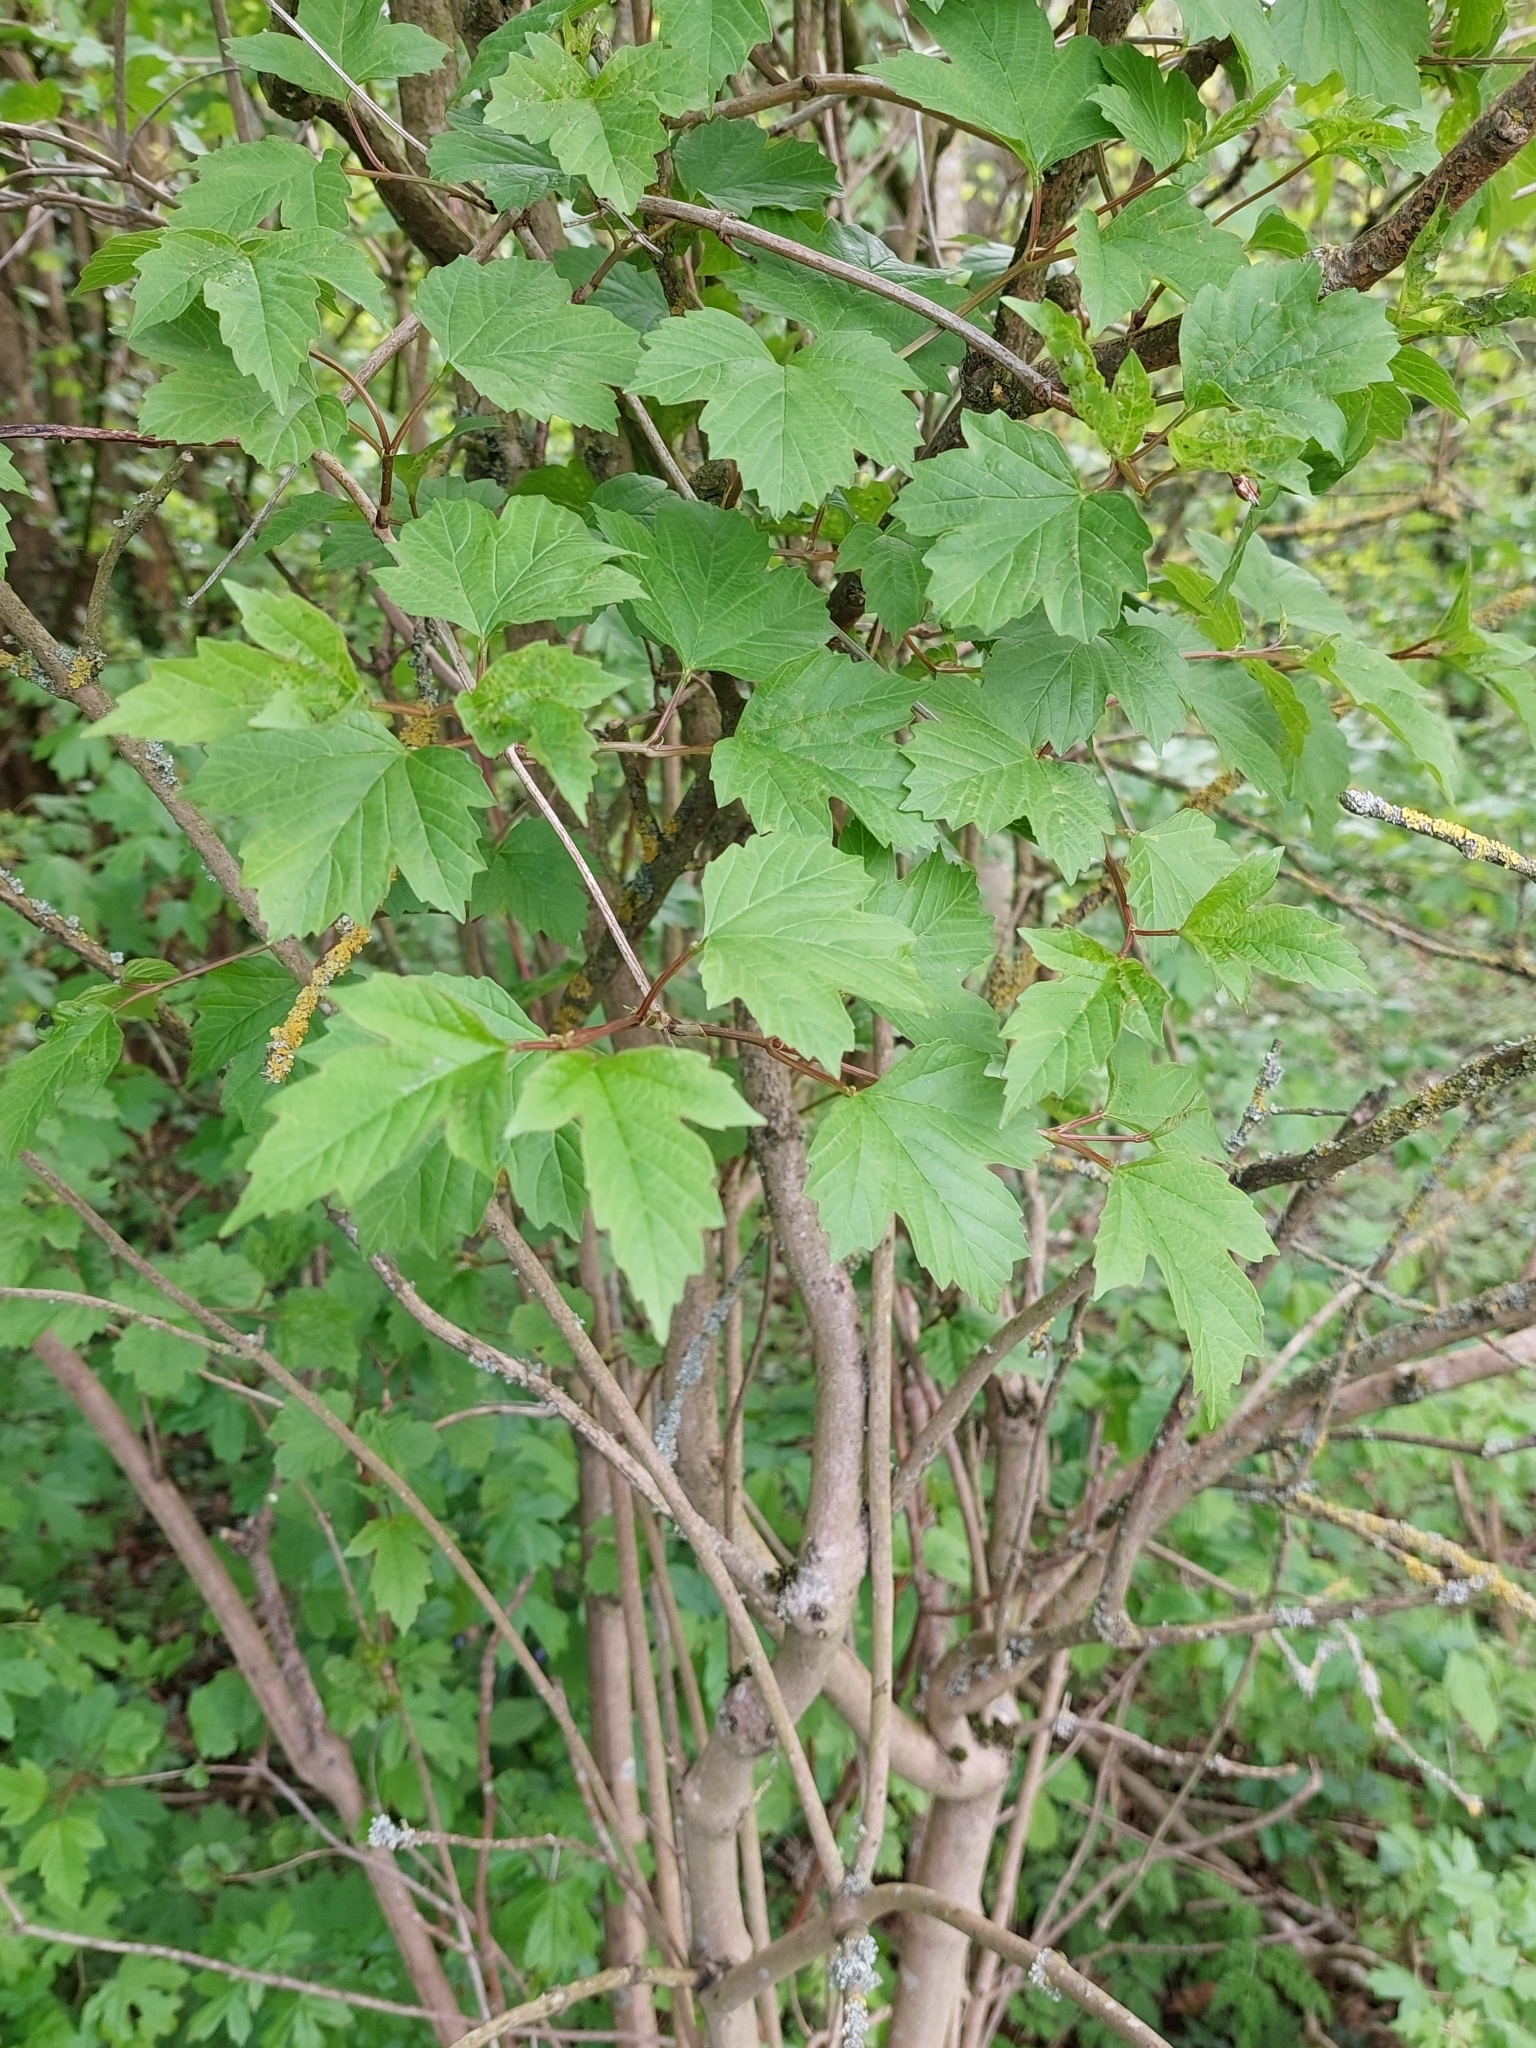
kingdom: Plantae
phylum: Tracheophyta
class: Magnoliopsida
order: Dipsacales
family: Viburnaceae
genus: Viburnum
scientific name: Viburnum opulus
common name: Guelder-rose
